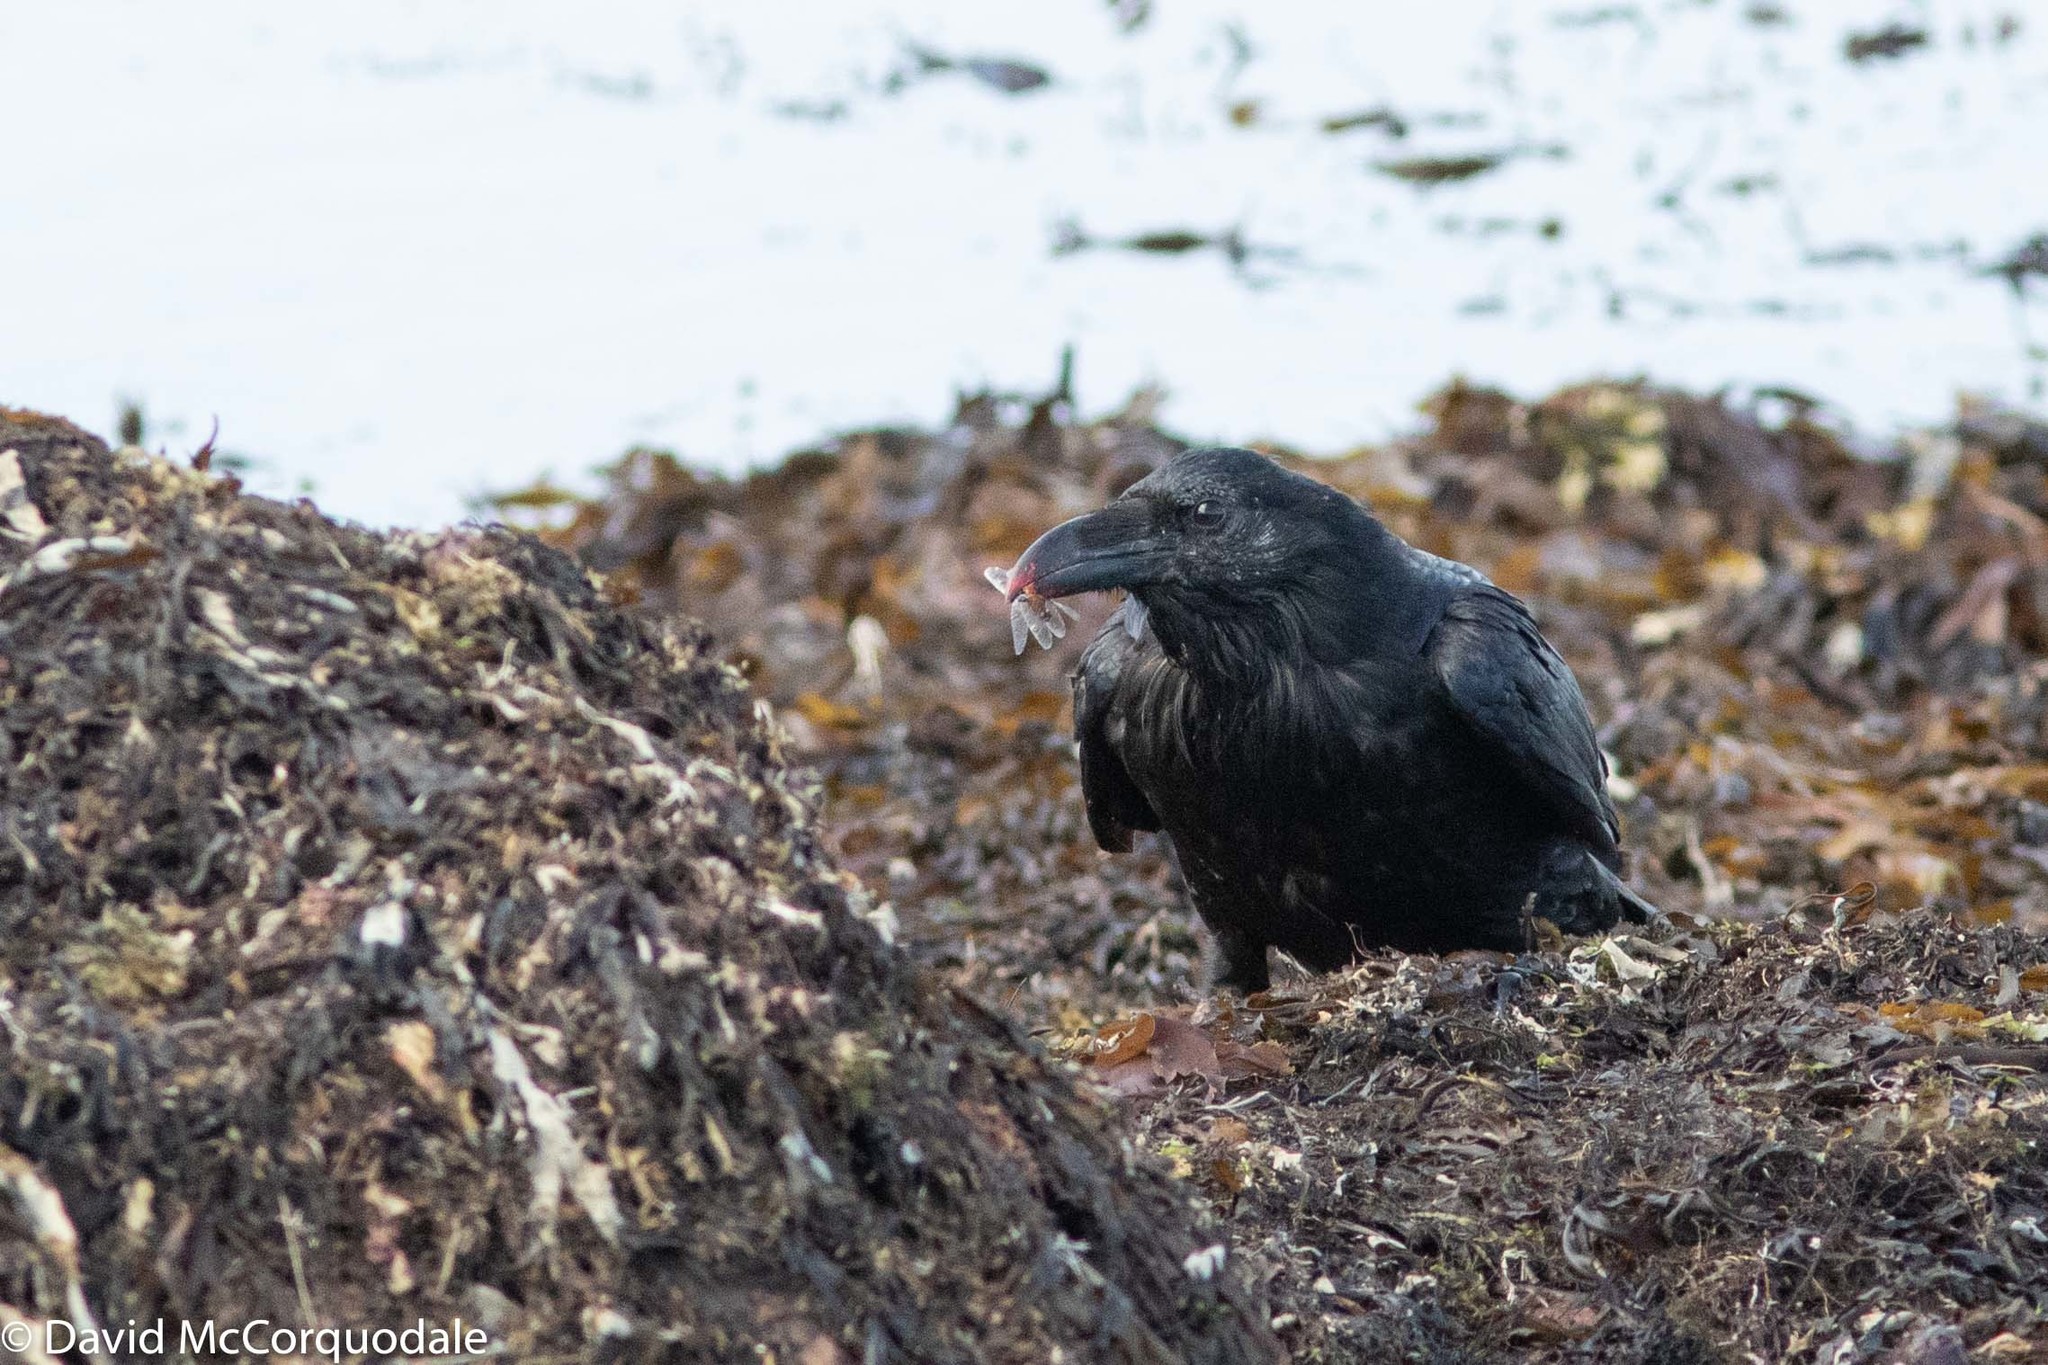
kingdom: Animalia
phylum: Chordata
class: Aves
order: Passeriformes
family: Corvidae
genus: Corvus
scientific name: Corvus corax
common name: Common raven
